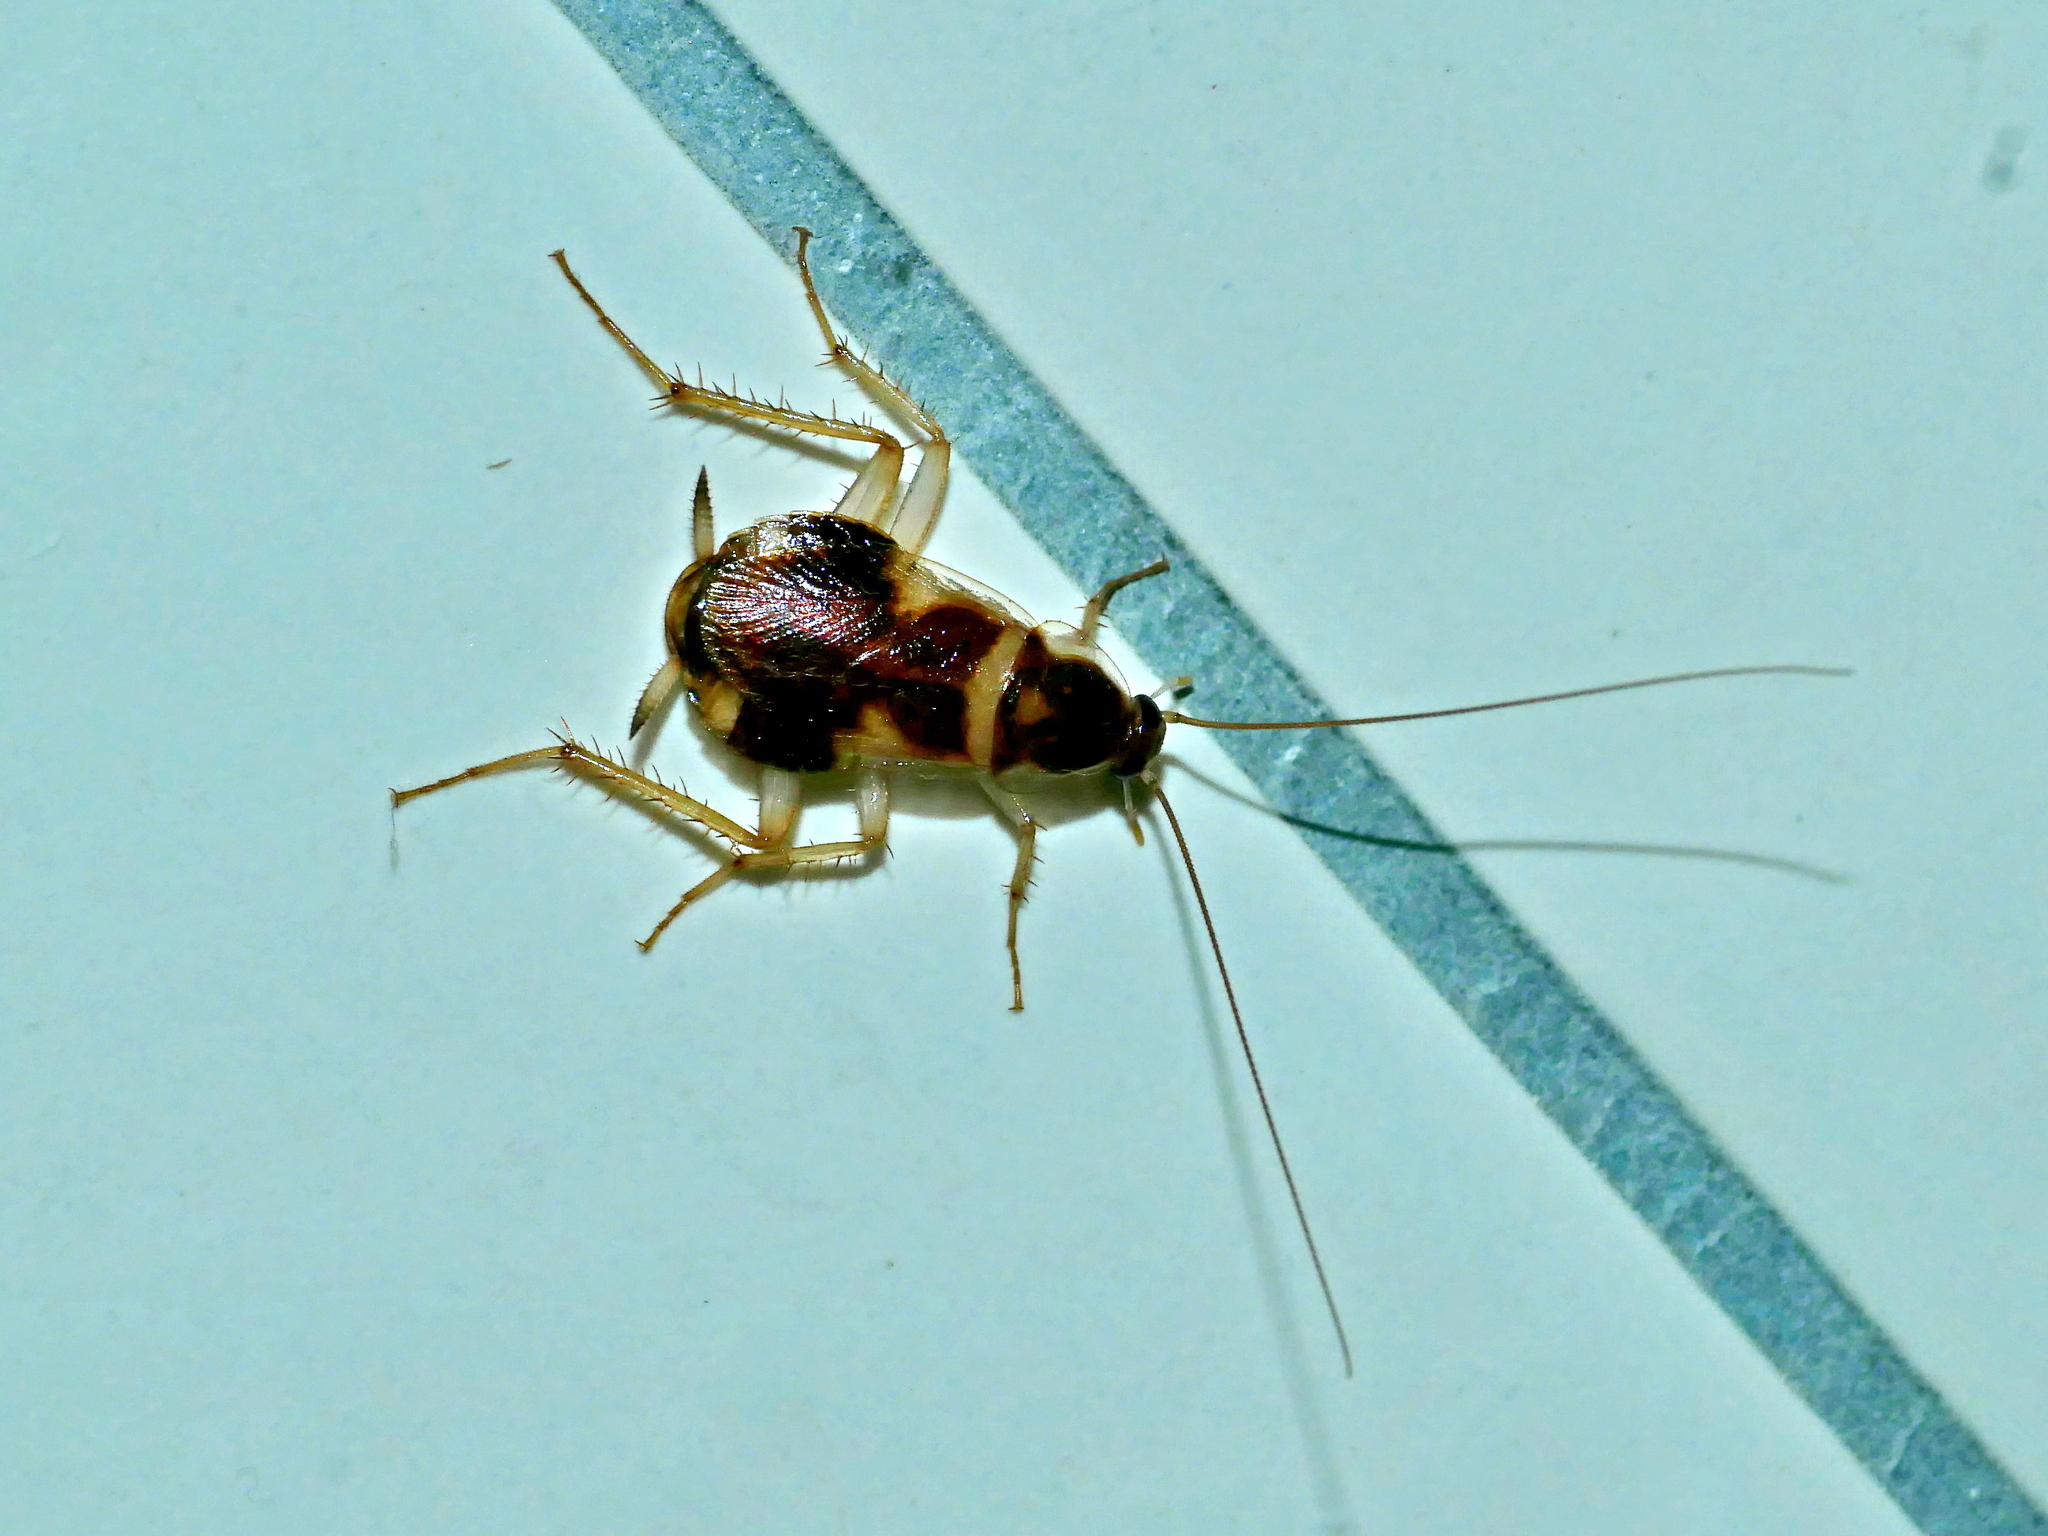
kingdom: Animalia
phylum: Arthropoda
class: Insecta
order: Blattodea
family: Ectobiidae
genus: Supella
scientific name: Supella longipalpa
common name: Brown-banded cockroach
